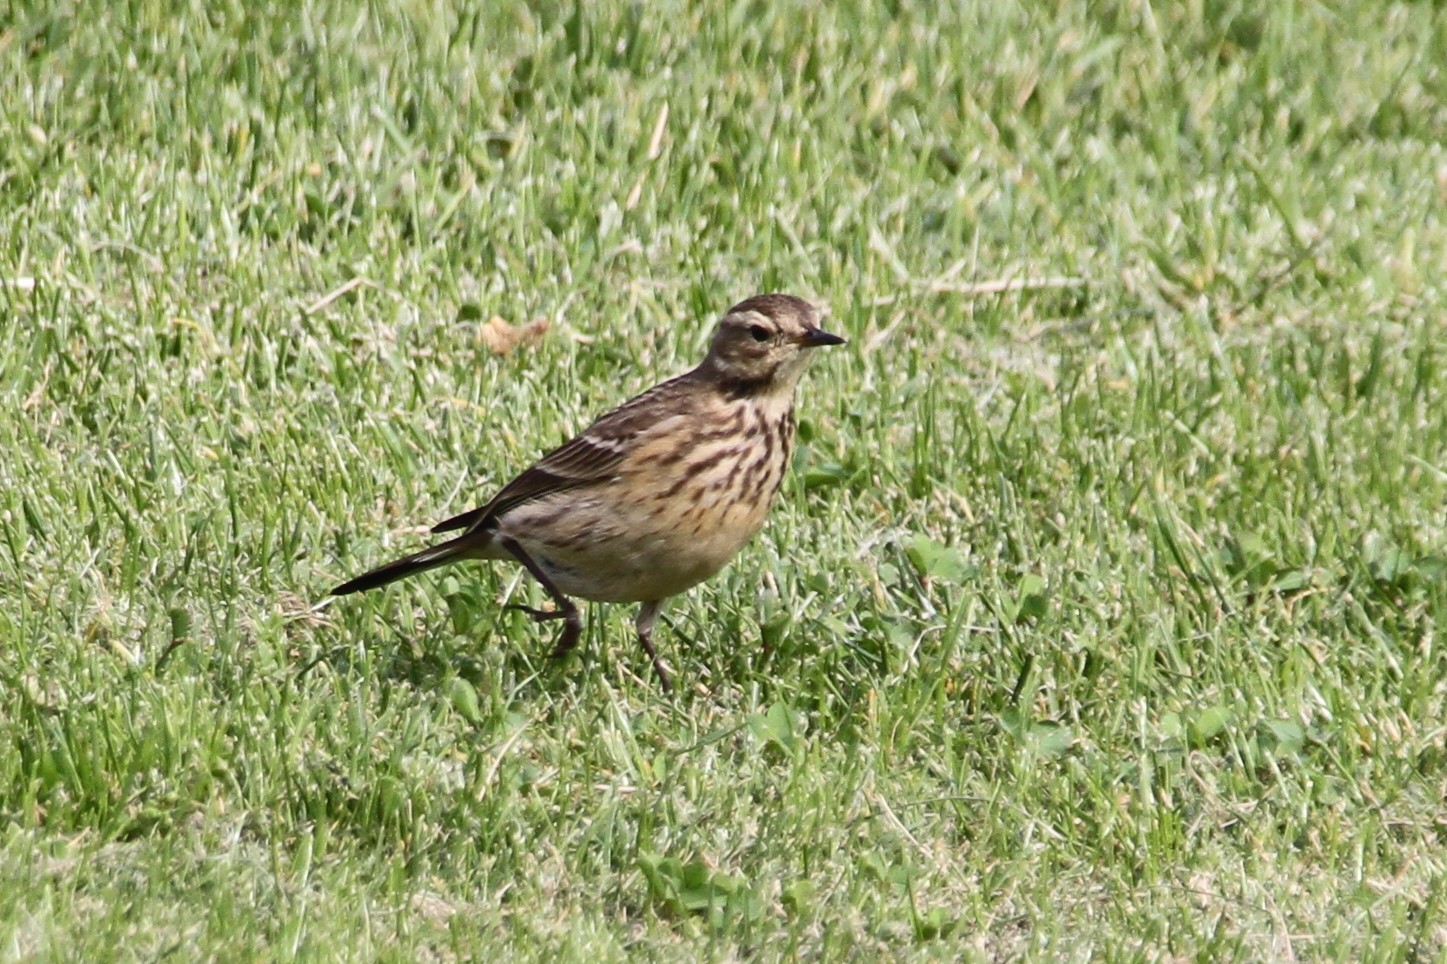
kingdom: Animalia
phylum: Chordata
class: Aves
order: Passeriformes
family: Motacillidae
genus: Anthus
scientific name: Anthus rubescens
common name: Buff-bellied pipit
